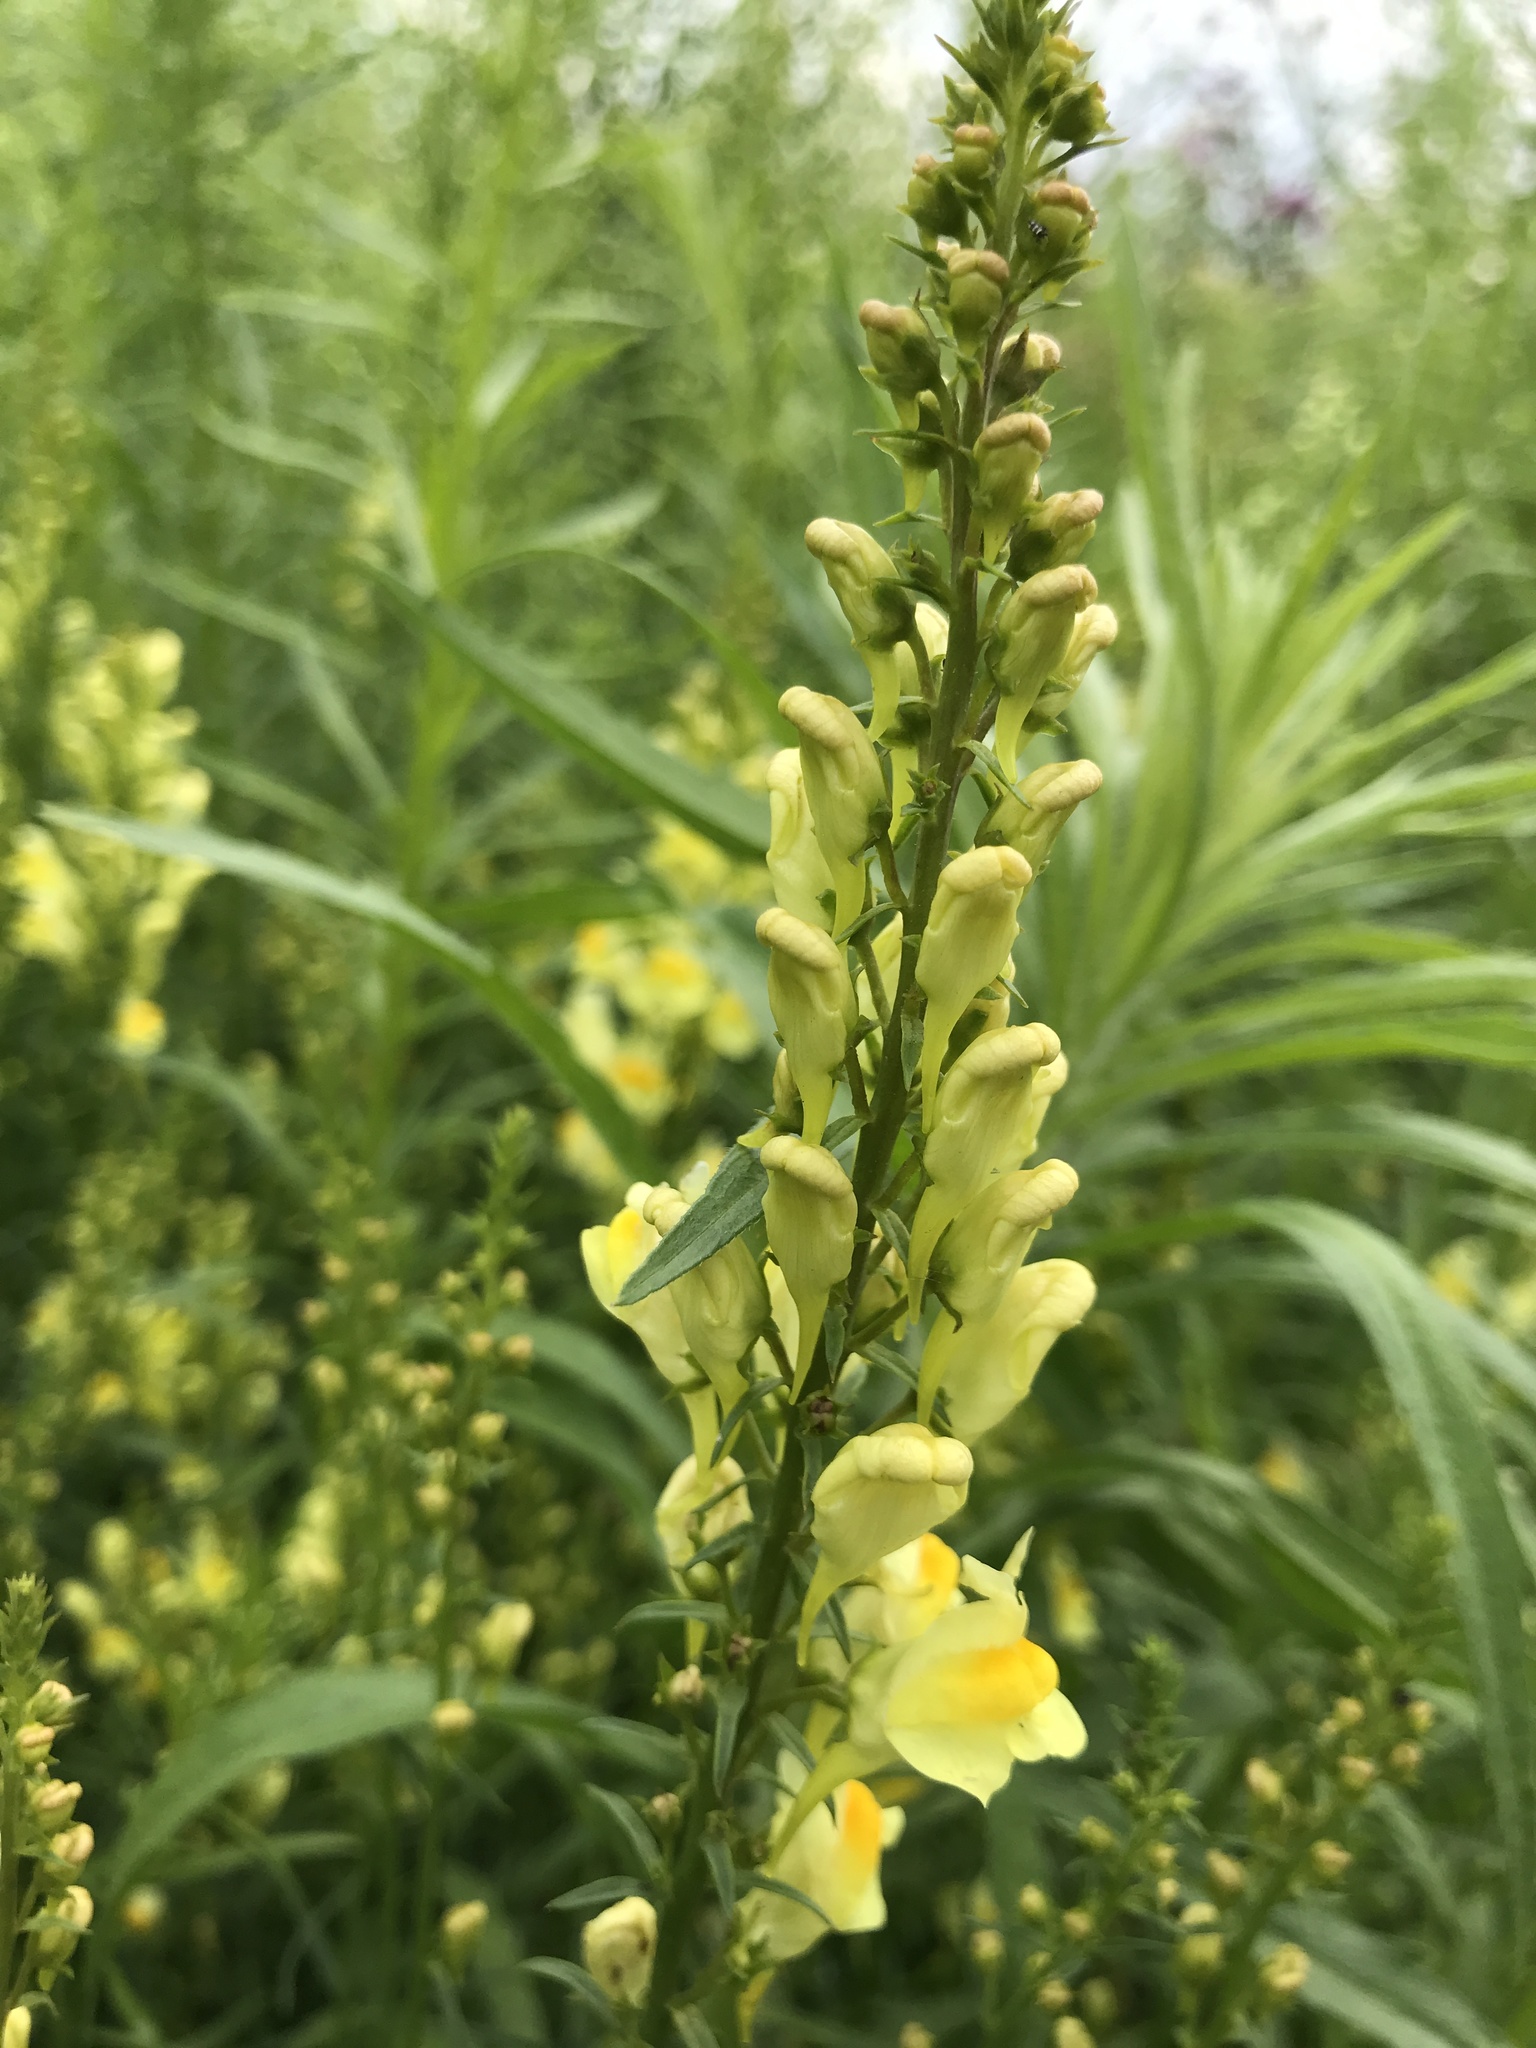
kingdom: Plantae
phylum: Tracheophyta
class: Magnoliopsida
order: Lamiales
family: Plantaginaceae
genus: Linaria
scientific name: Linaria vulgaris
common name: Butter and eggs
